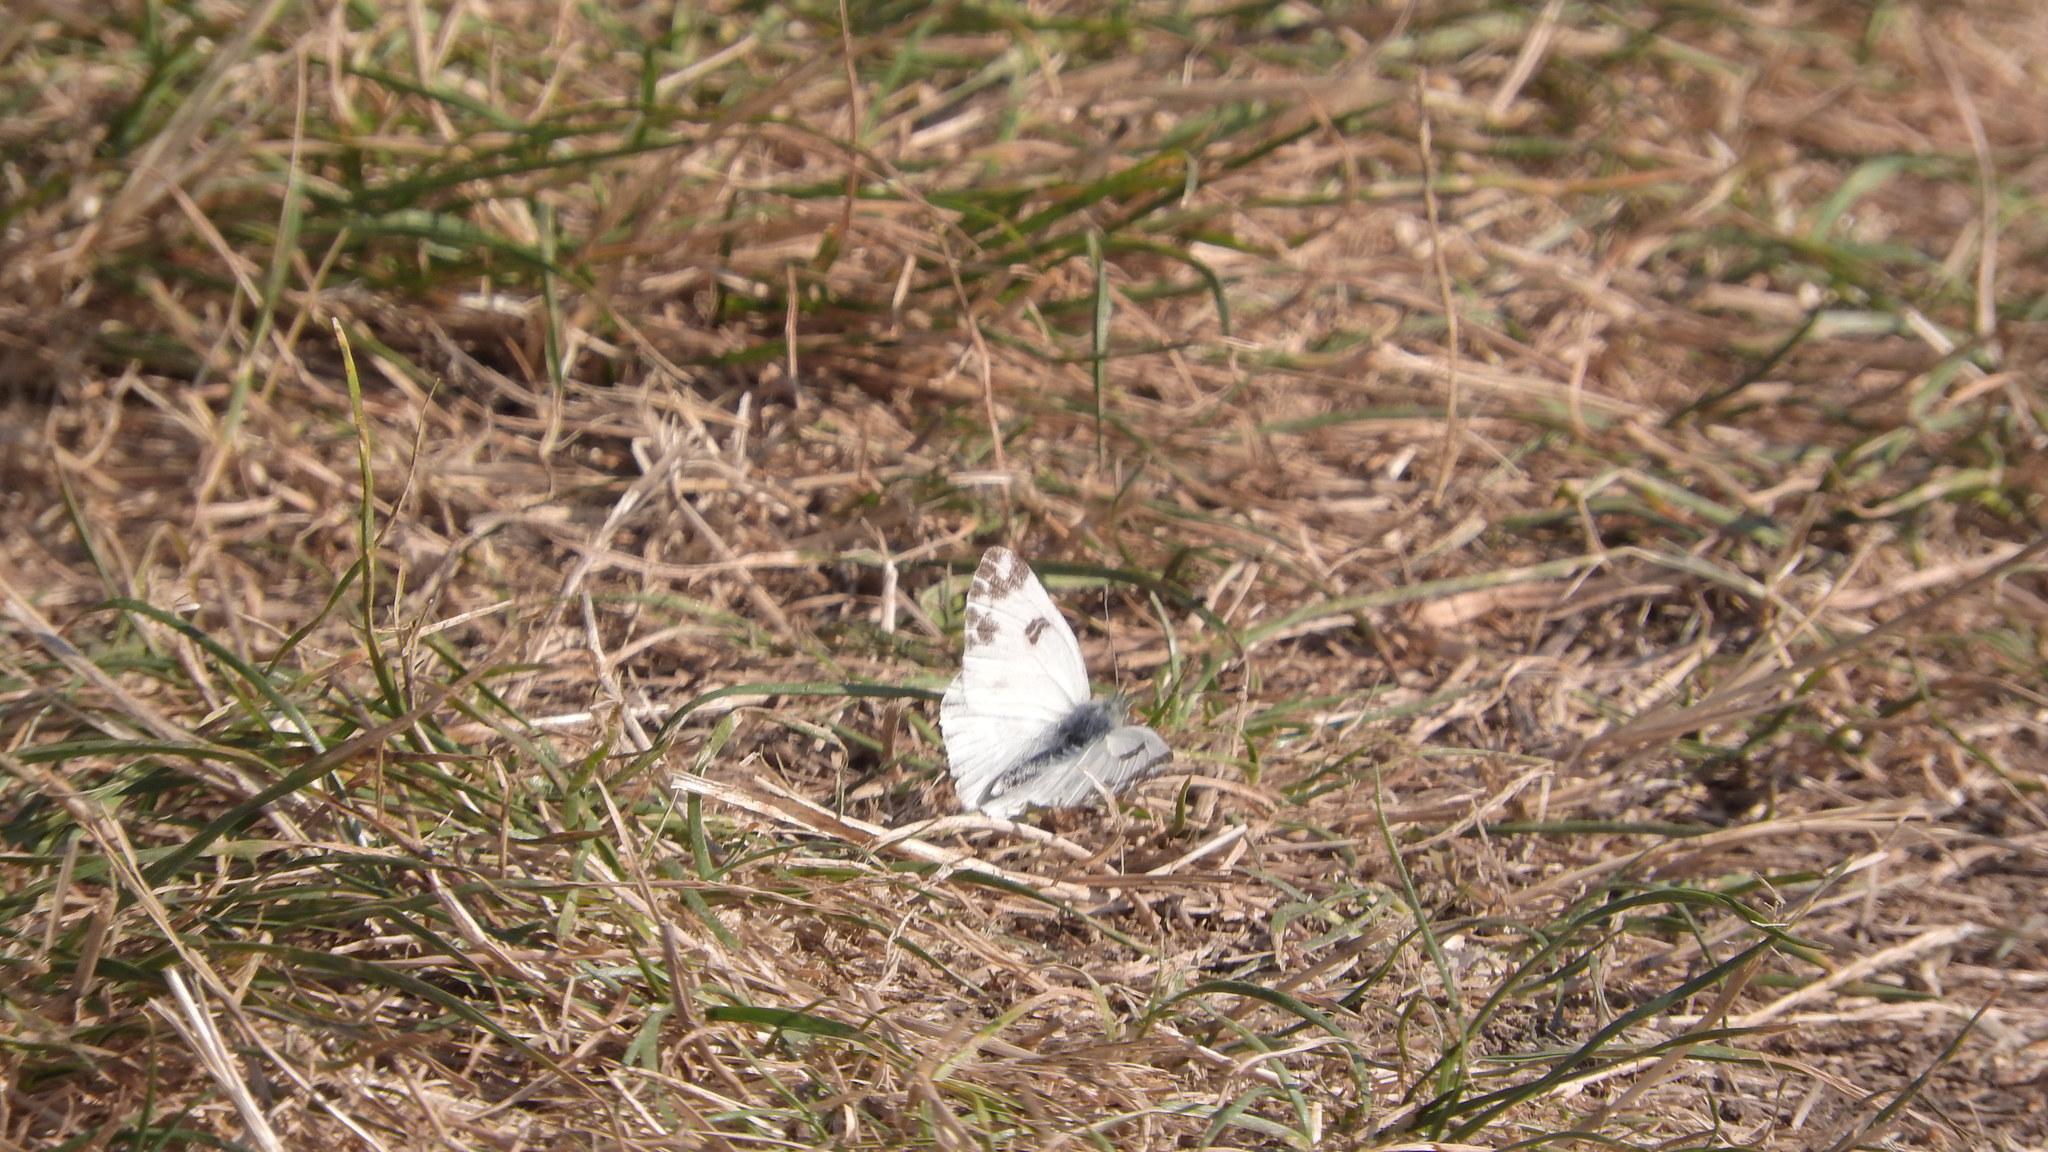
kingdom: Animalia
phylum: Arthropoda
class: Insecta
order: Lepidoptera
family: Pieridae
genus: Pontia
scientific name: Pontia edusa
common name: Eastern bath white
